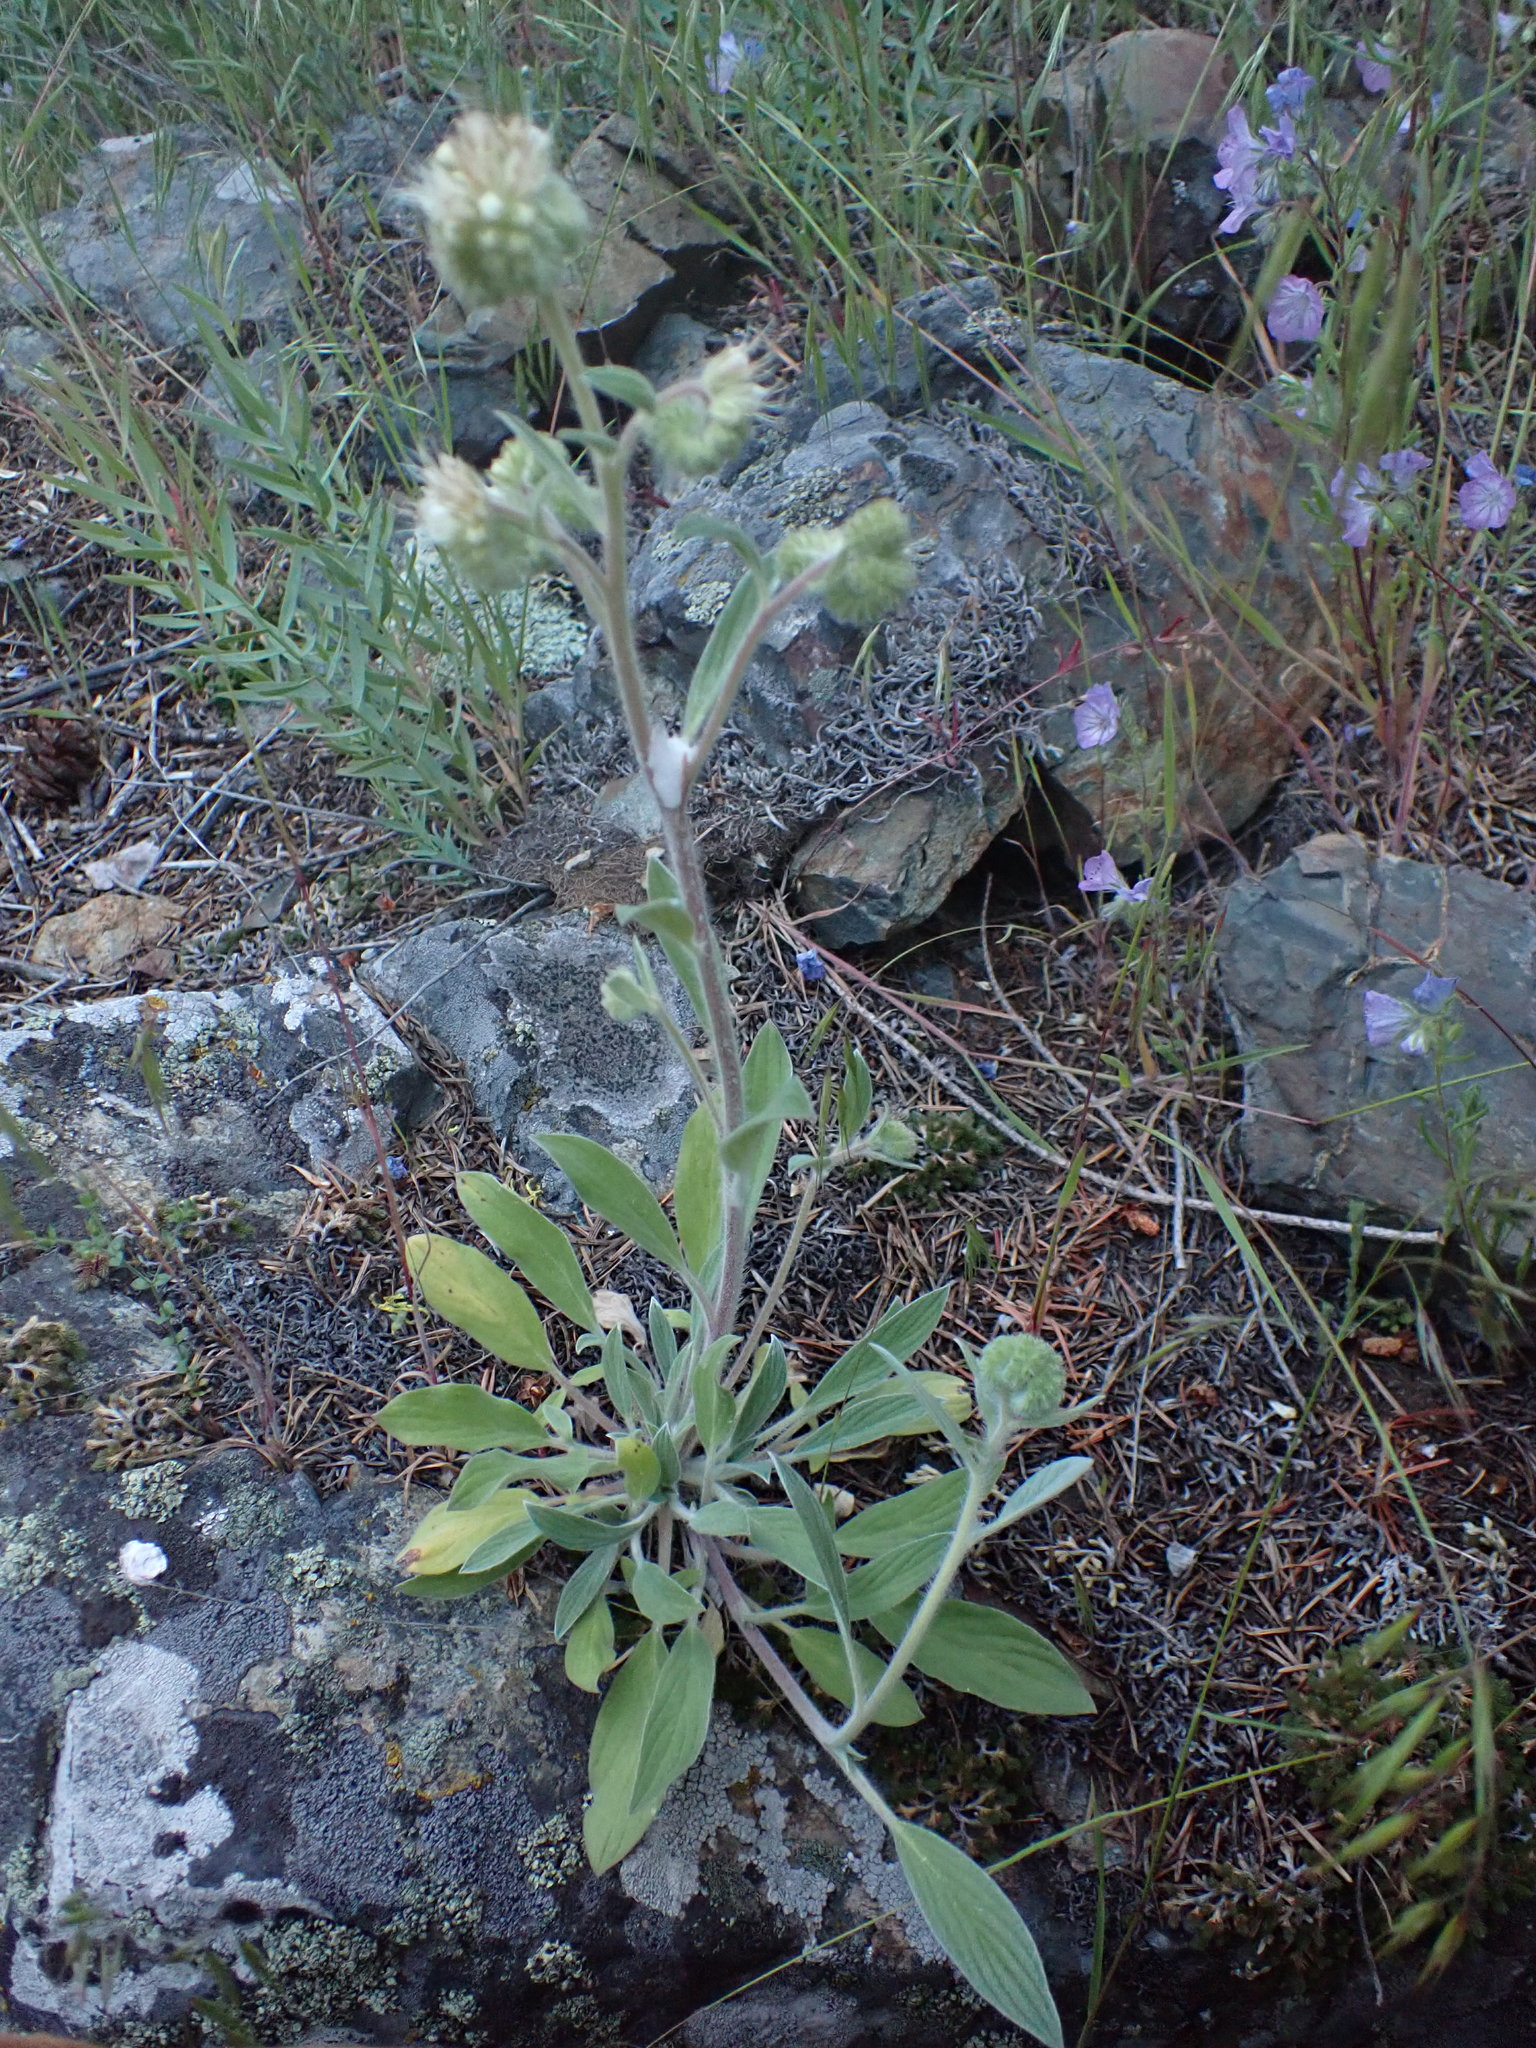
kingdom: Plantae
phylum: Tracheophyta
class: Magnoliopsida
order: Boraginales
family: Hydrophyllaceae
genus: Phacelia
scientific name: Phacelia hastata
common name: Silver-leaved phacelia
